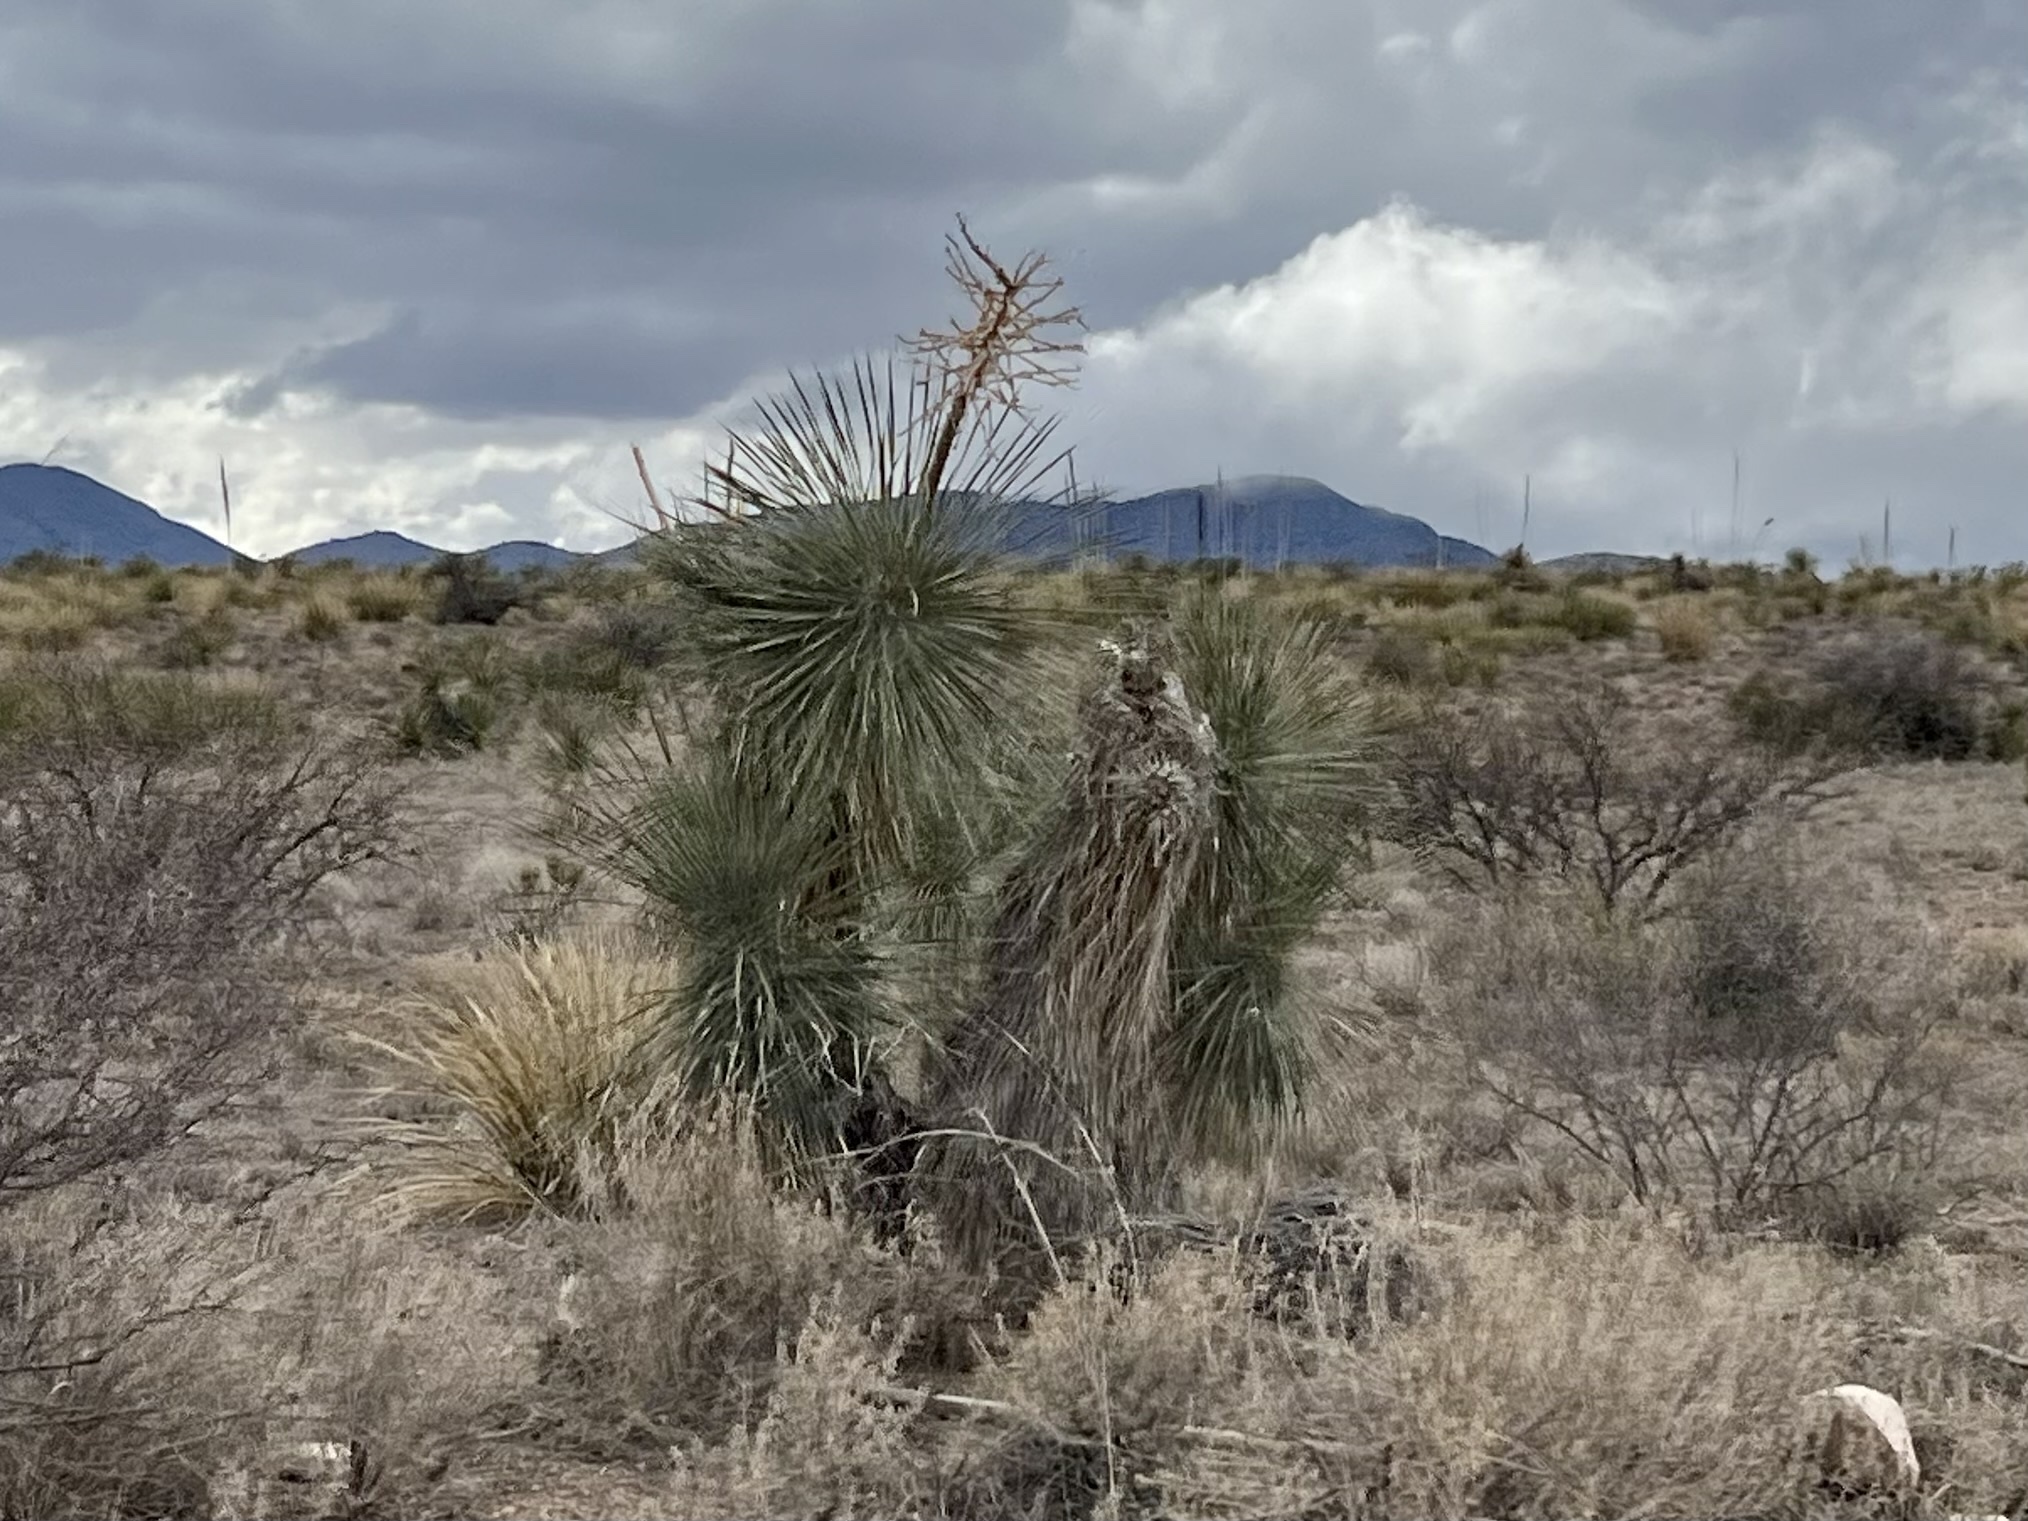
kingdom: Plantae
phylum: Tracheophyta
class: Liliopsida
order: Asparagales
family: Asparagaceae
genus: Yucca
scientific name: Yucca elata
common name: Palmella
